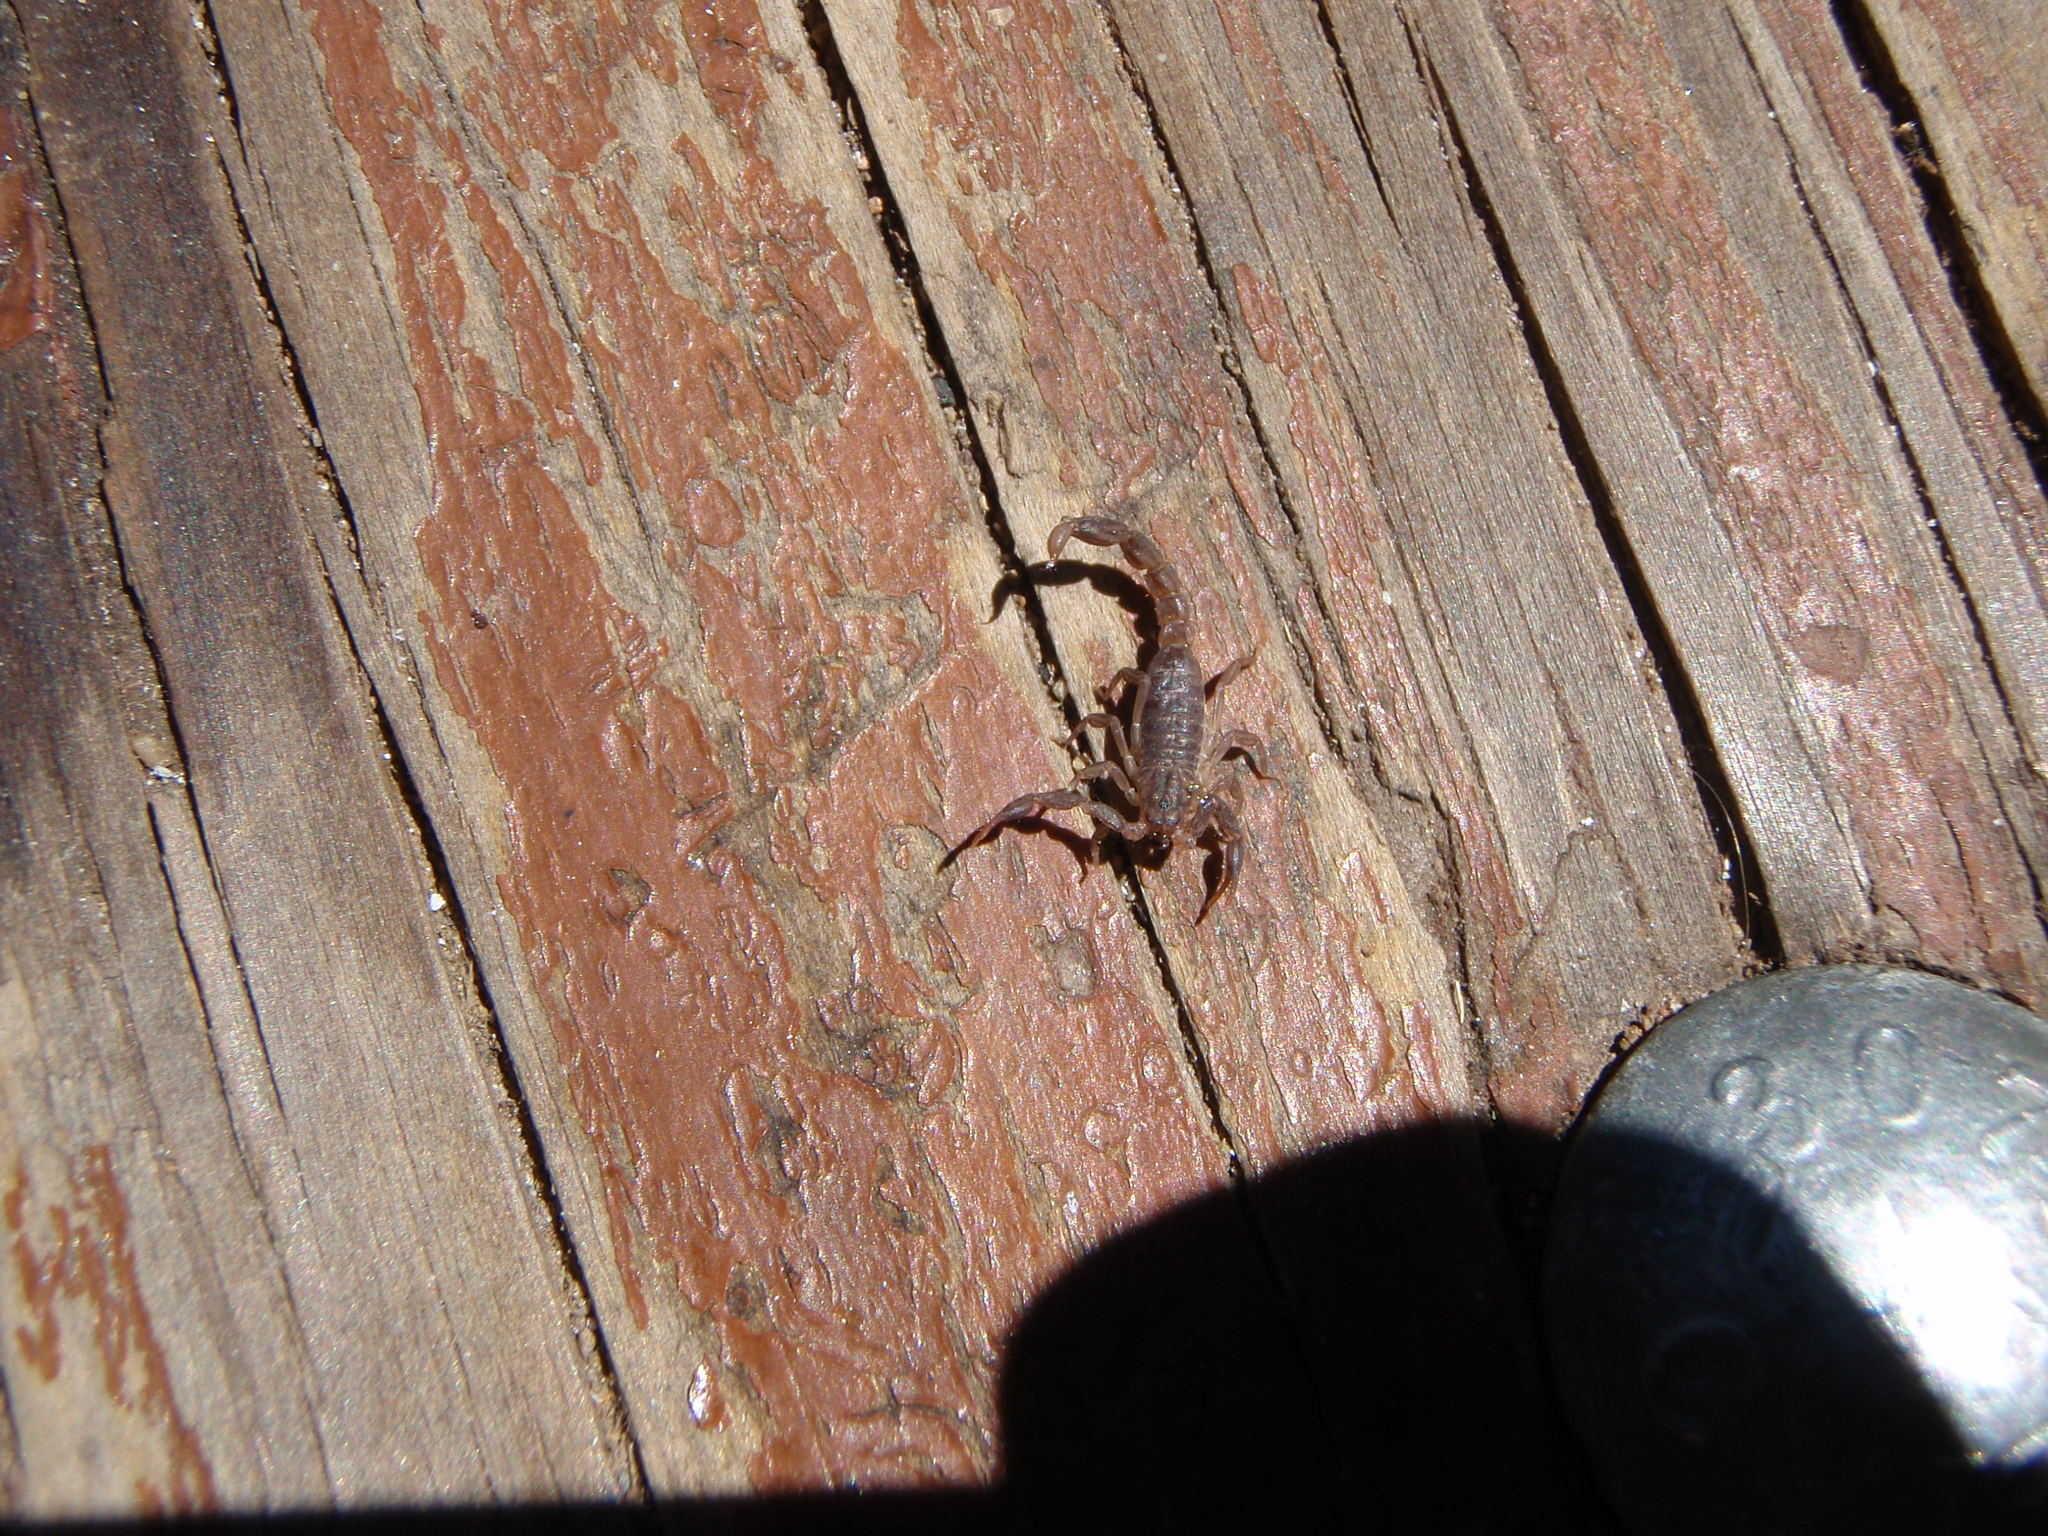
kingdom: Animalia
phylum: Arthropoda
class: Arachnida
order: Scorpiones
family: Vaejovidae
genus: Vaejovis
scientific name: Vaejovis cashi
